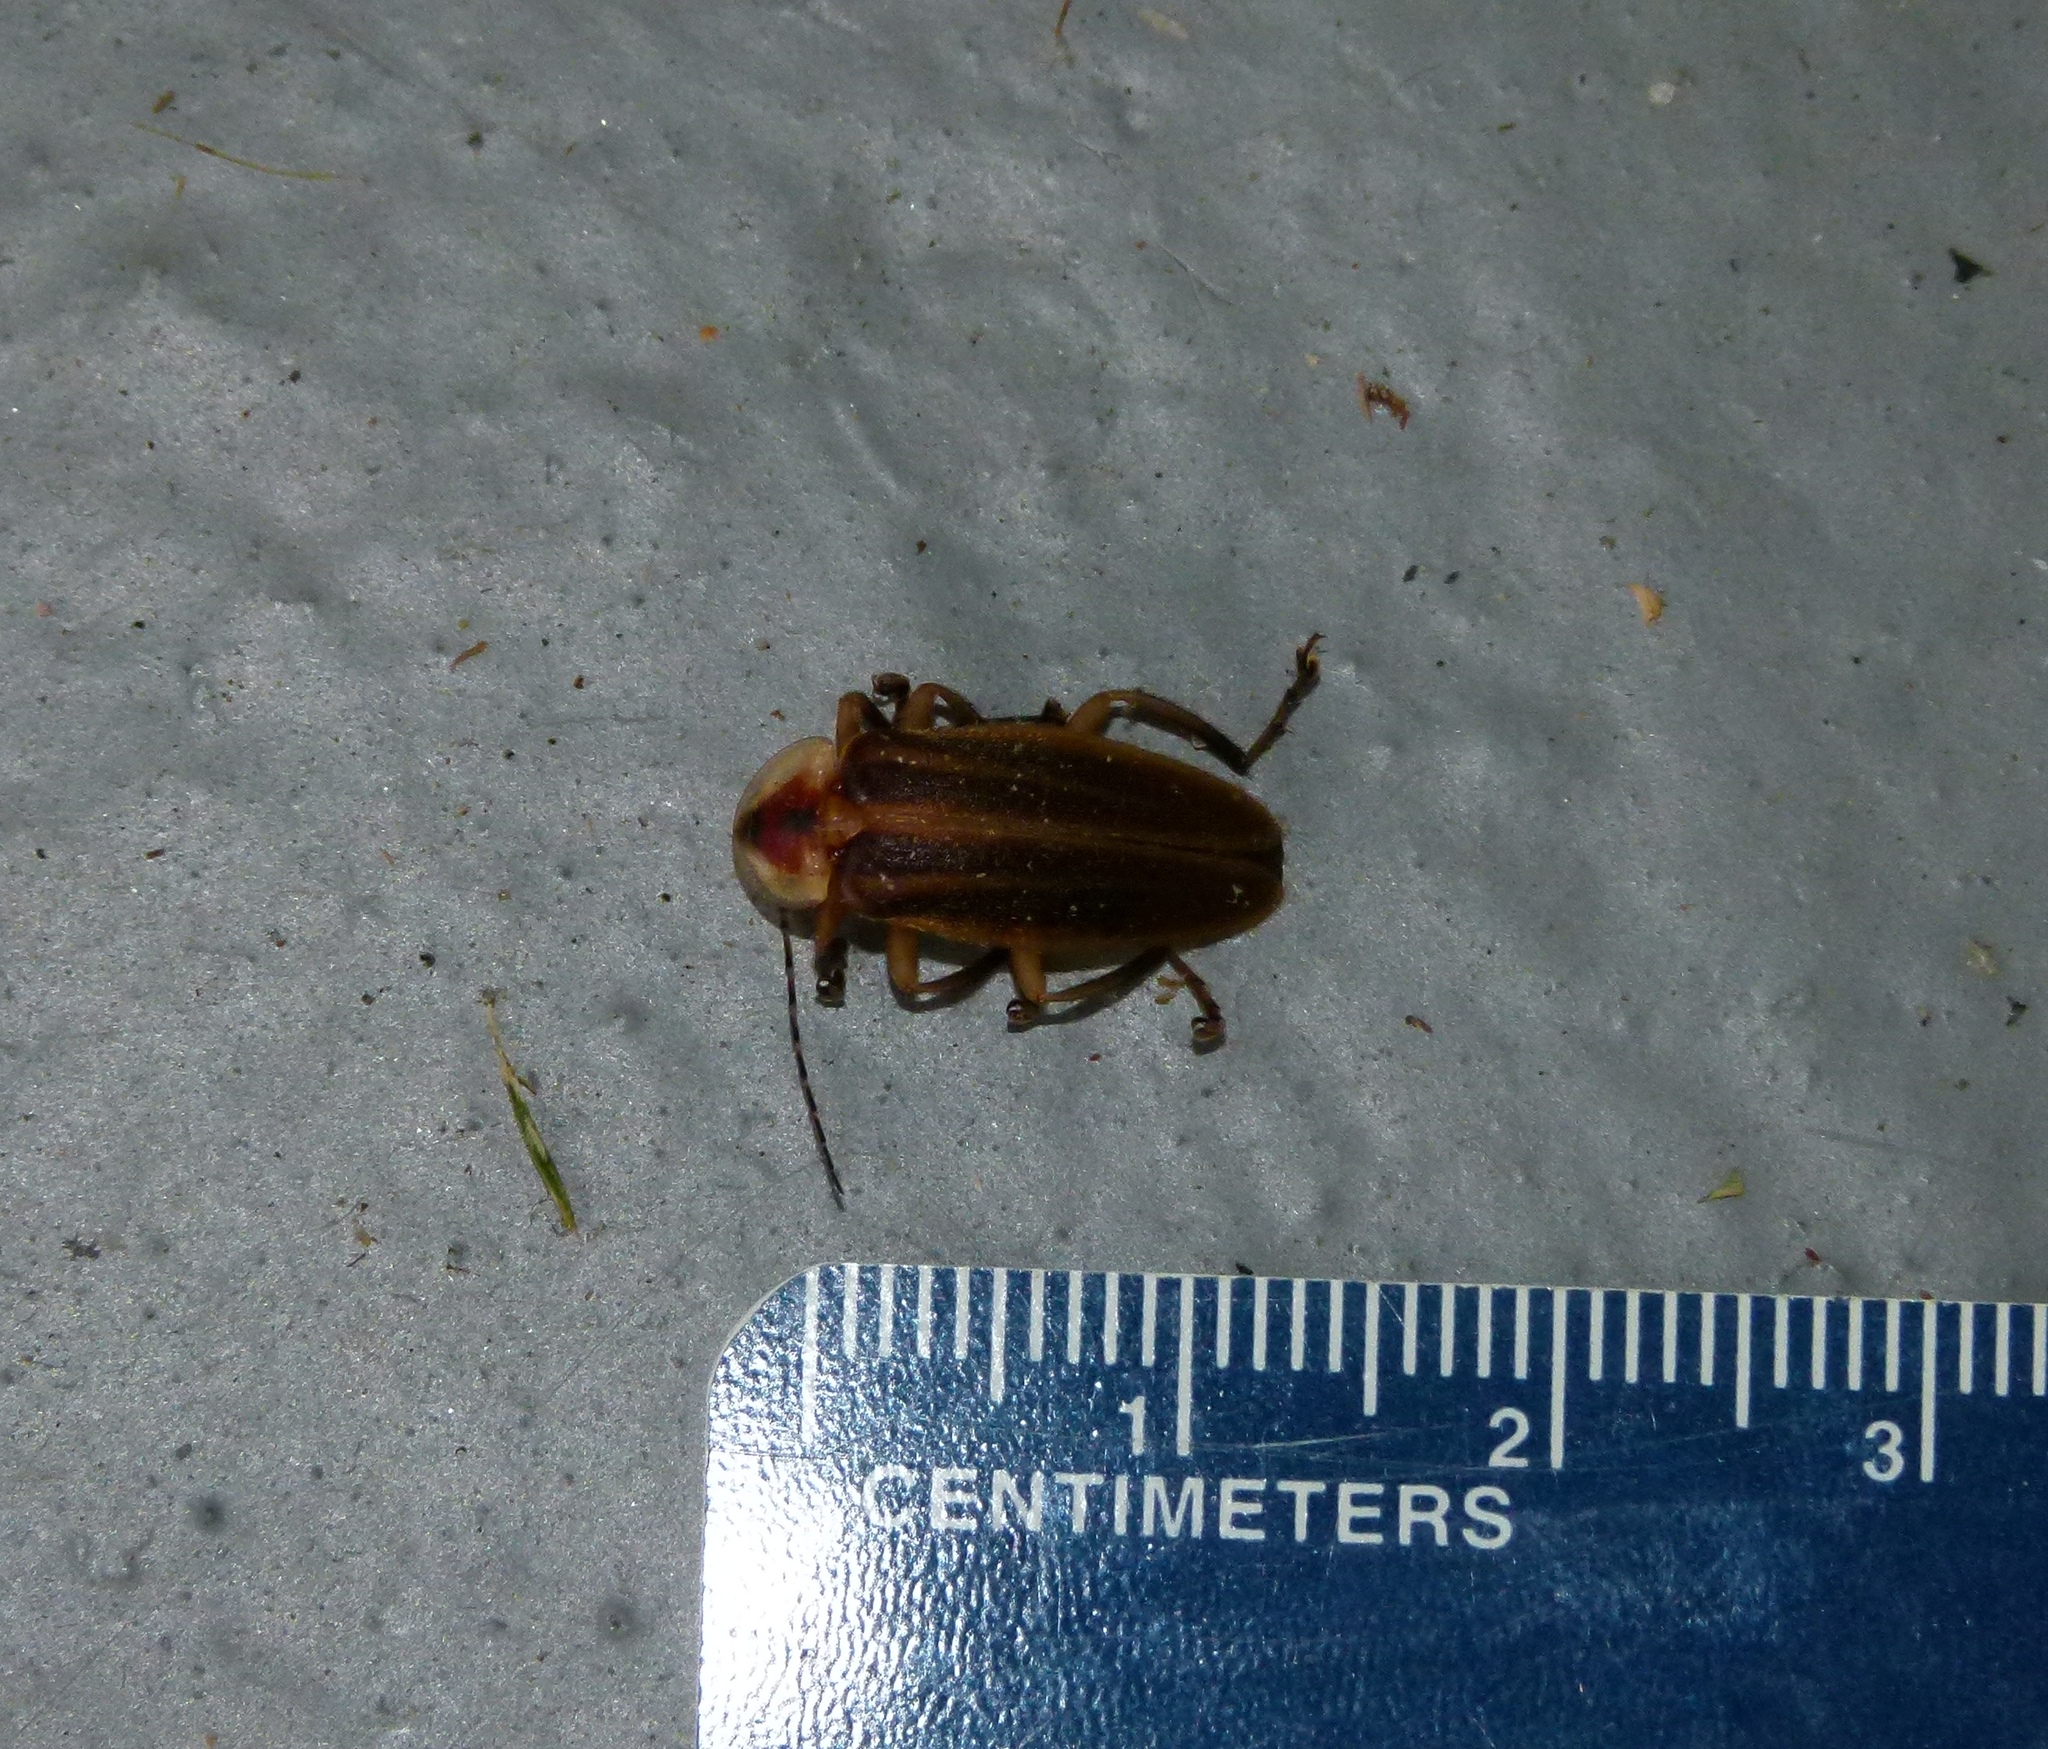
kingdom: Animalia
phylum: Arthropoda
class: Insecta
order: Coleoptera
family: Lampyridae
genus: Photuris
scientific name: Photuris
